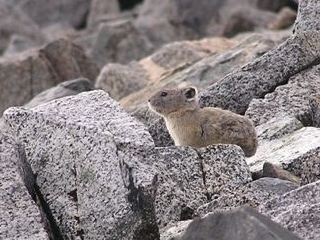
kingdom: Animalia
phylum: Chordata
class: Mammalia
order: Lagomorpha
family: Ochotonidae
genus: Ochotona
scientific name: Ochotona princeps
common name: American pika
